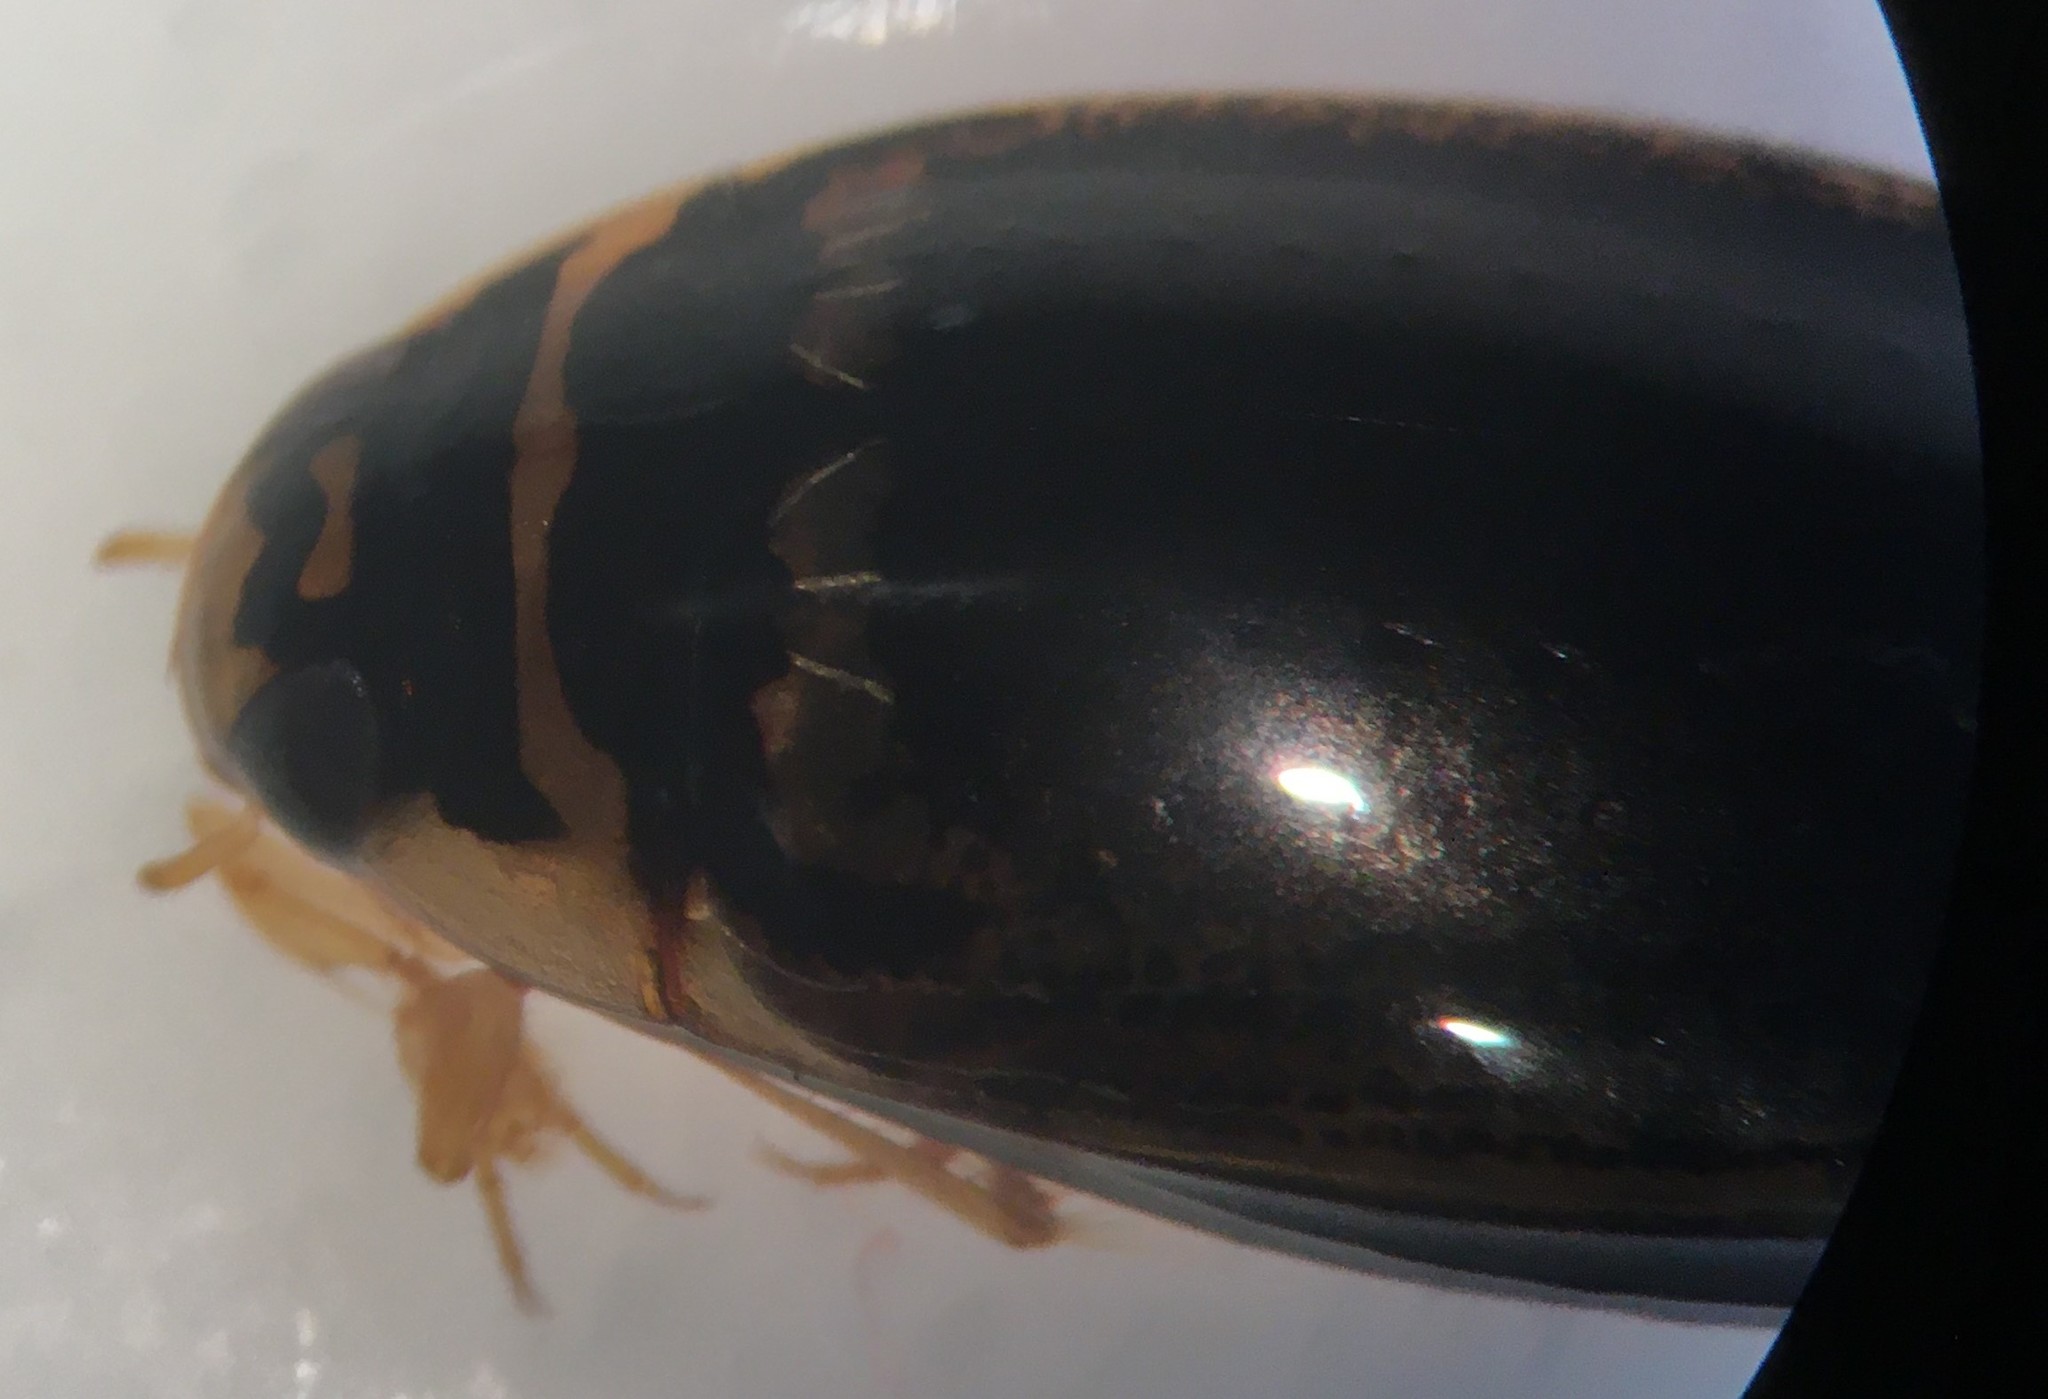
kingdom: Animalia
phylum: Arthropoda
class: Insecta
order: Coleoptera
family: Dytiscidae
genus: Thermonectus
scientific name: Thermonectus basillaris
